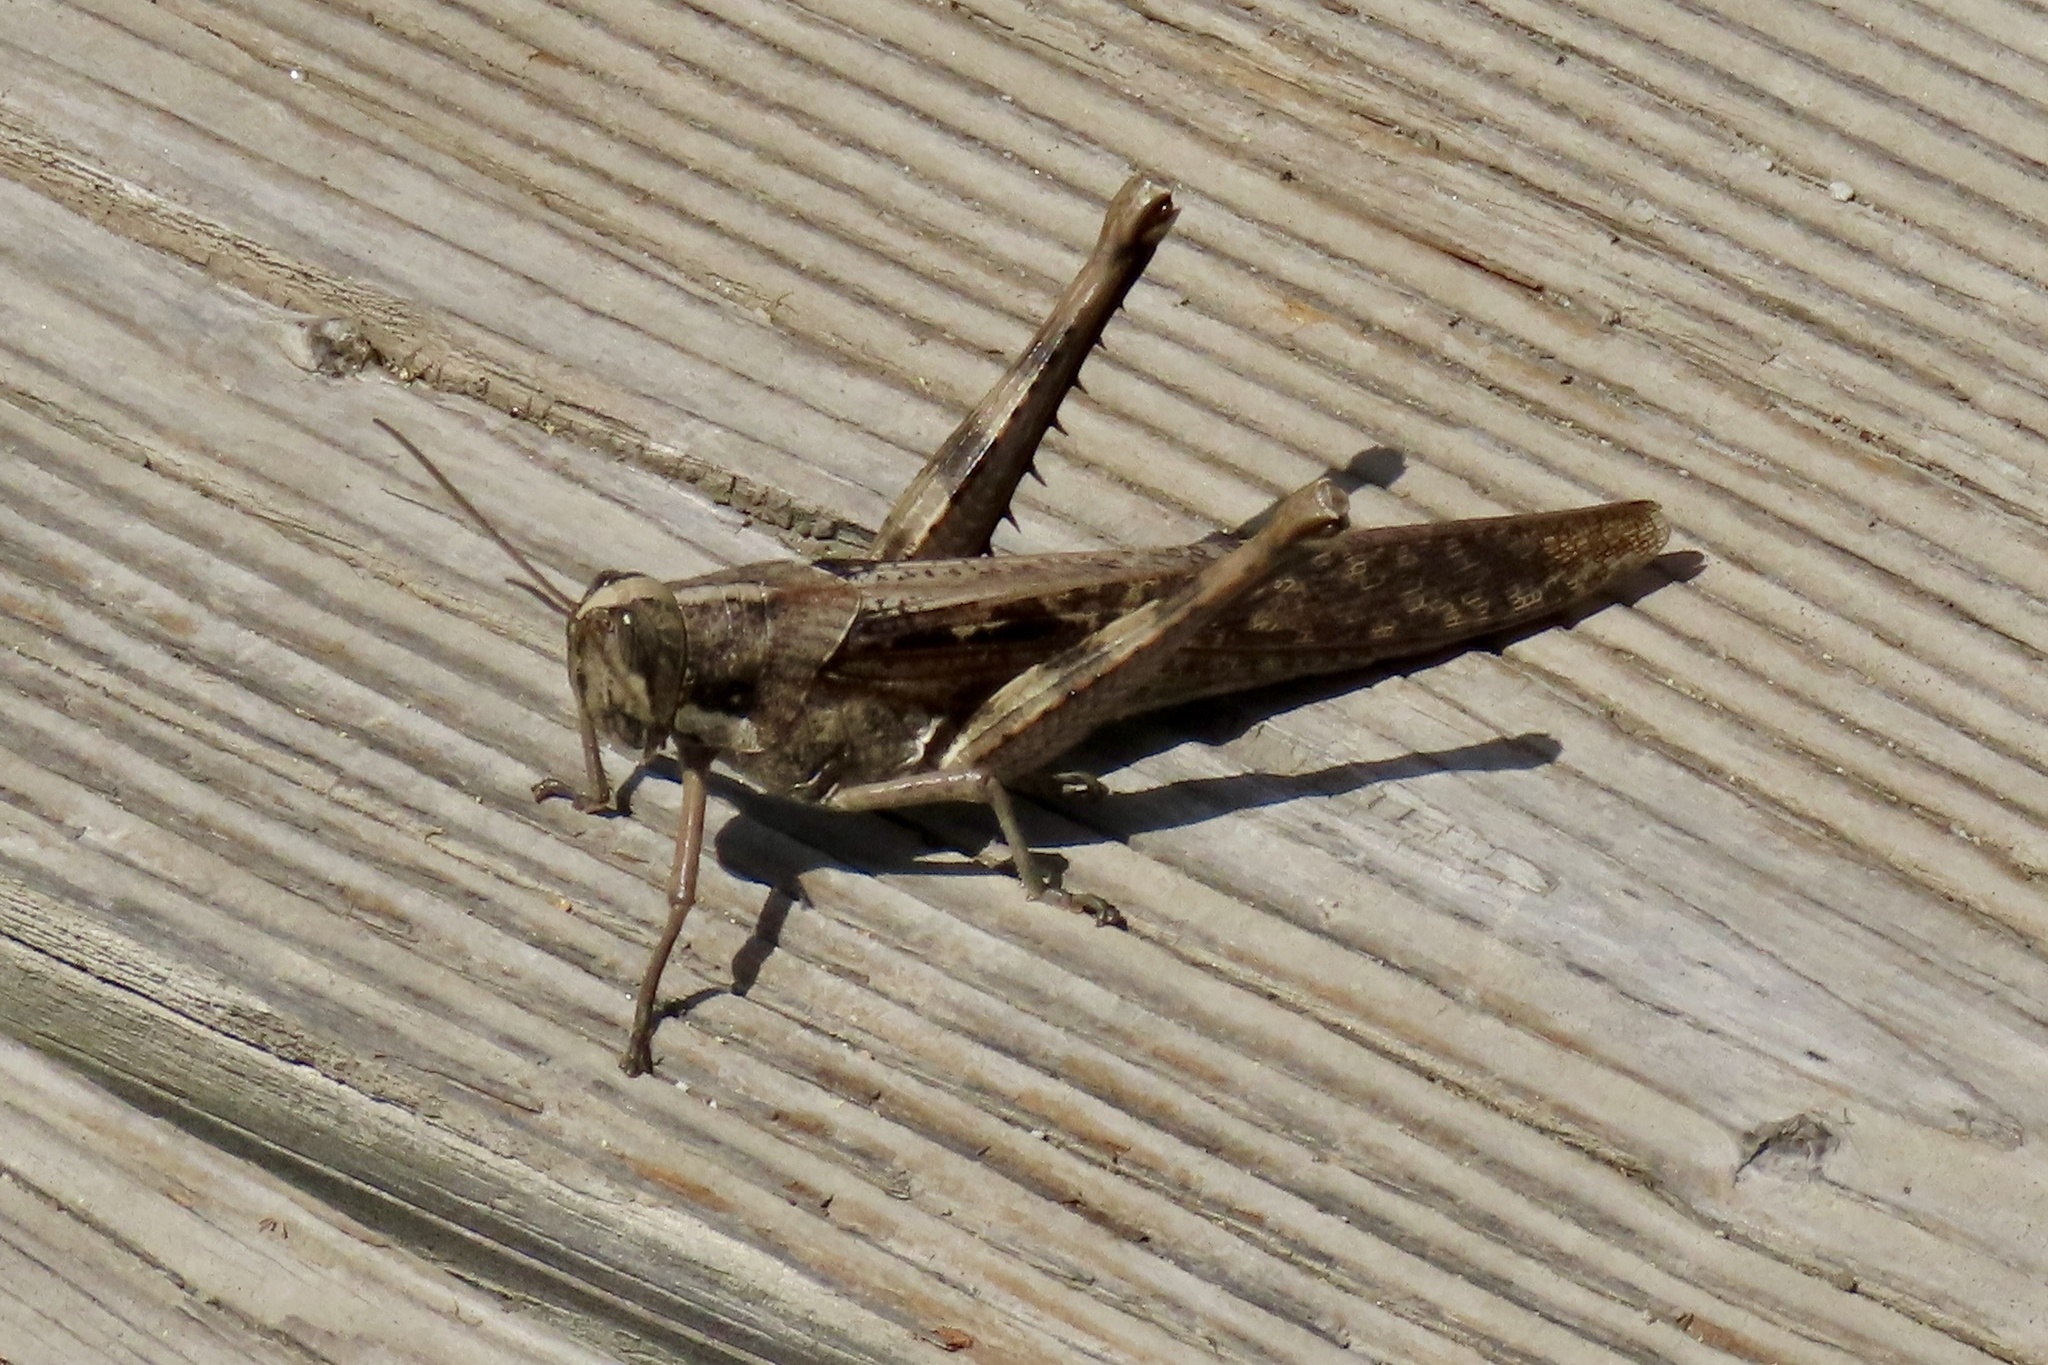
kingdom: Animalia
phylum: Arthropoda
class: Insecta
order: Orthoptera
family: Acrididae
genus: Schistocerca
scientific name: Schistocerca nitens
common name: Vagrant grasshopper
